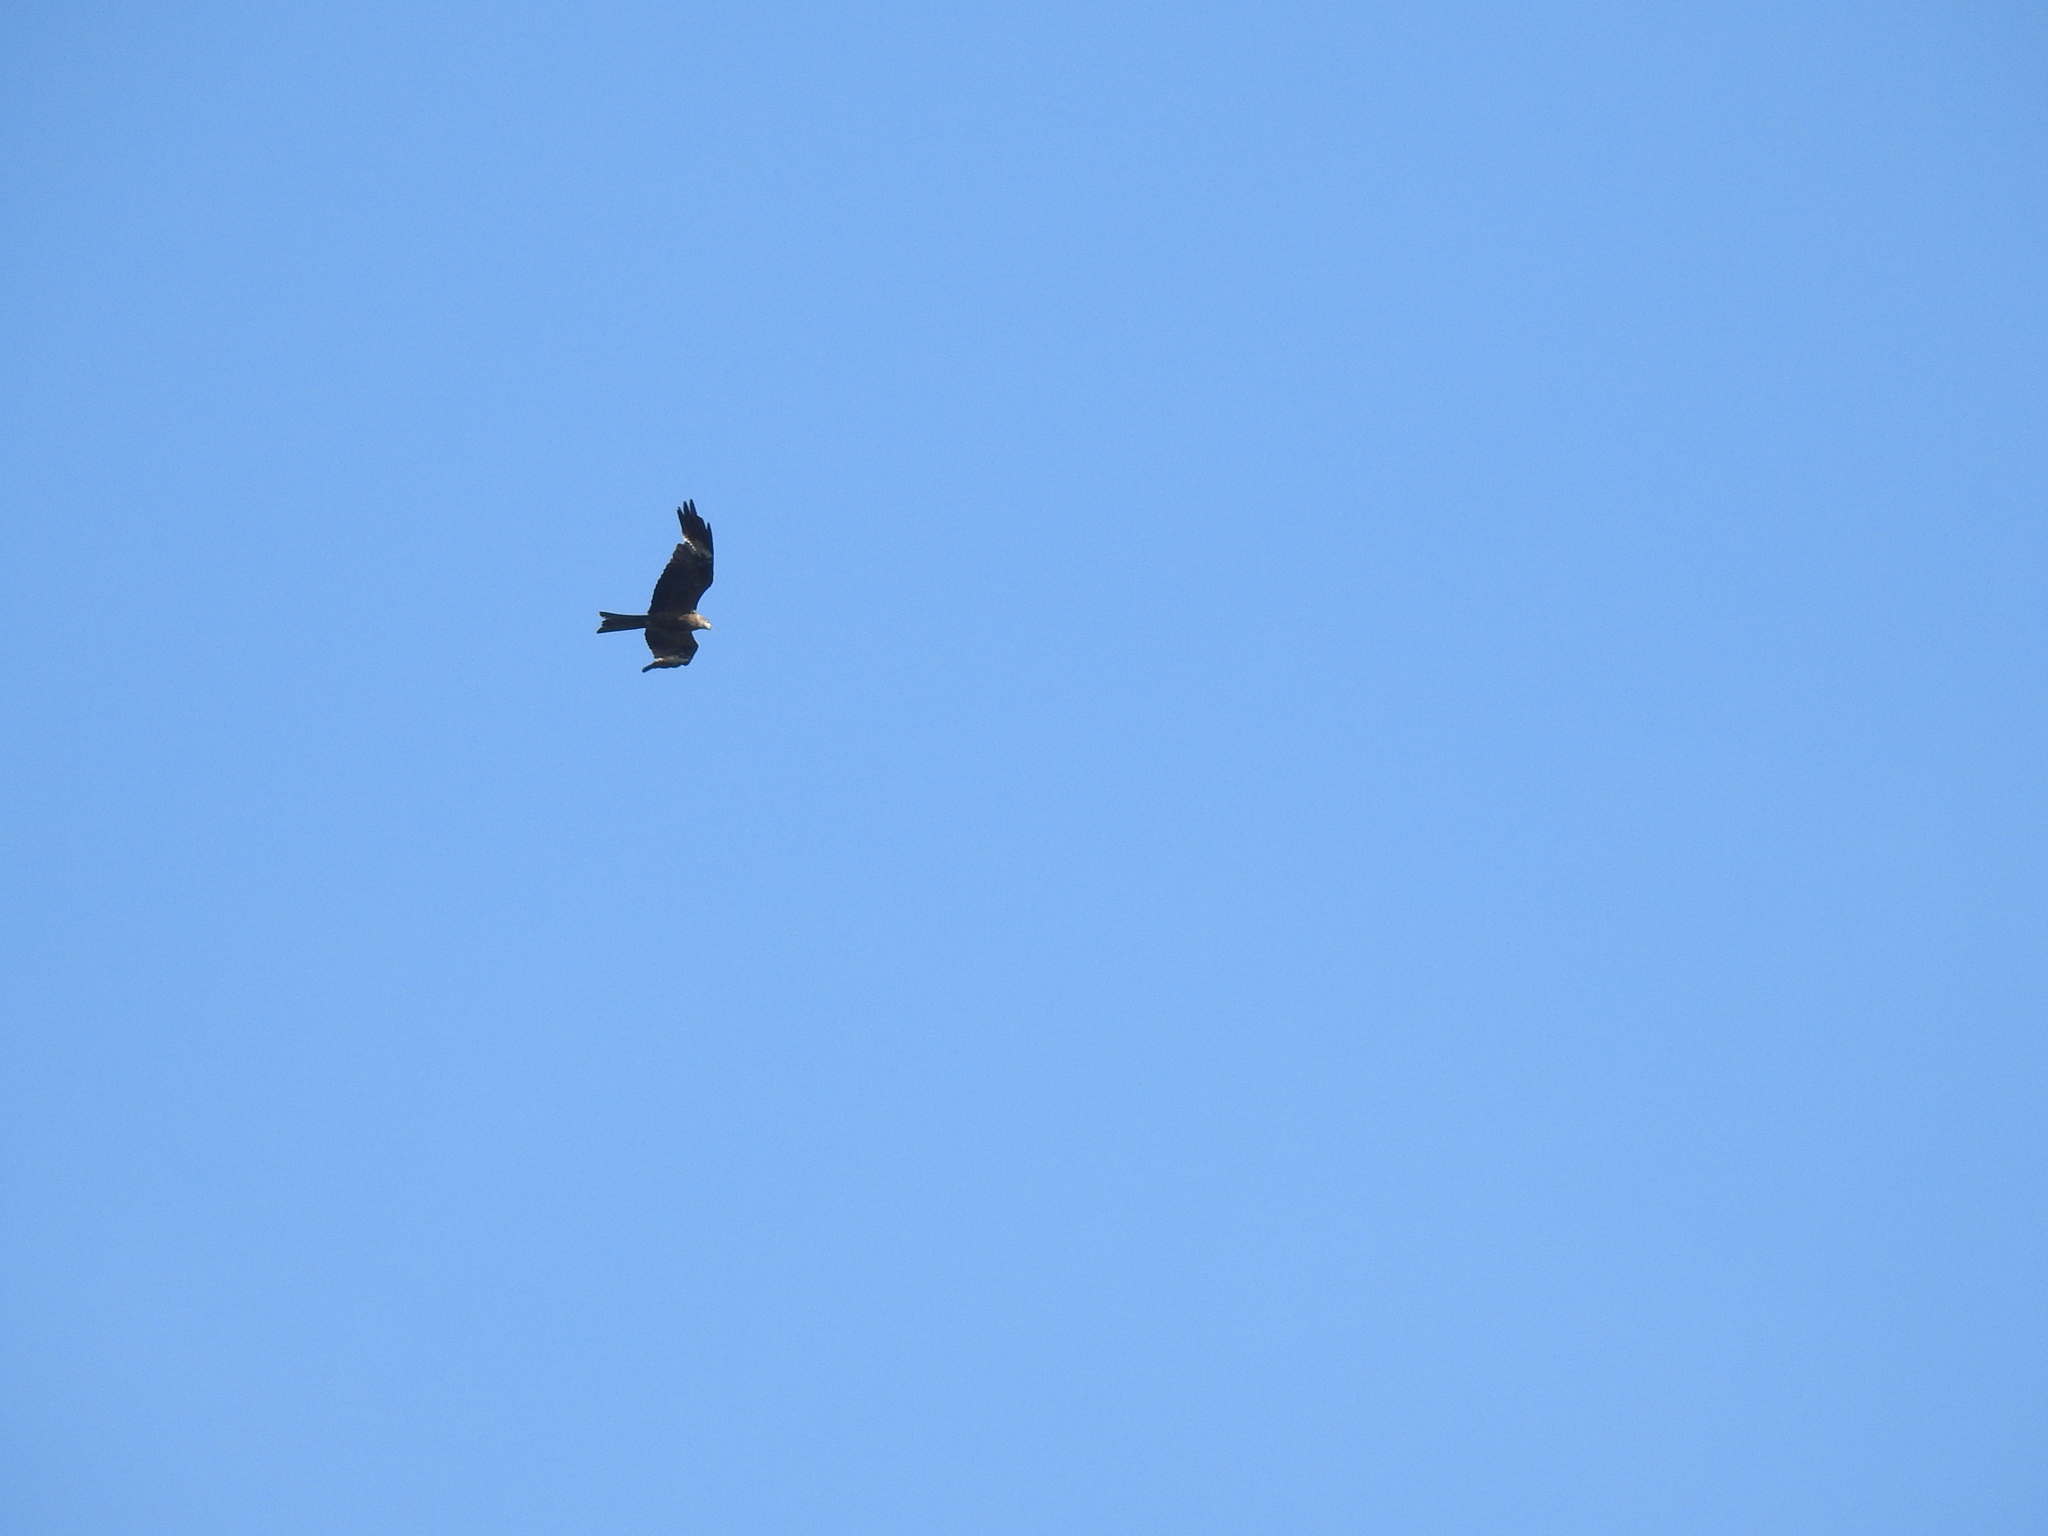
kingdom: Animalia
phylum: Chordata
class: Aves
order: Accipitriformes
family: Accipitridae
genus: Milvus
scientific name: Milvus migrans
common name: Black kite
